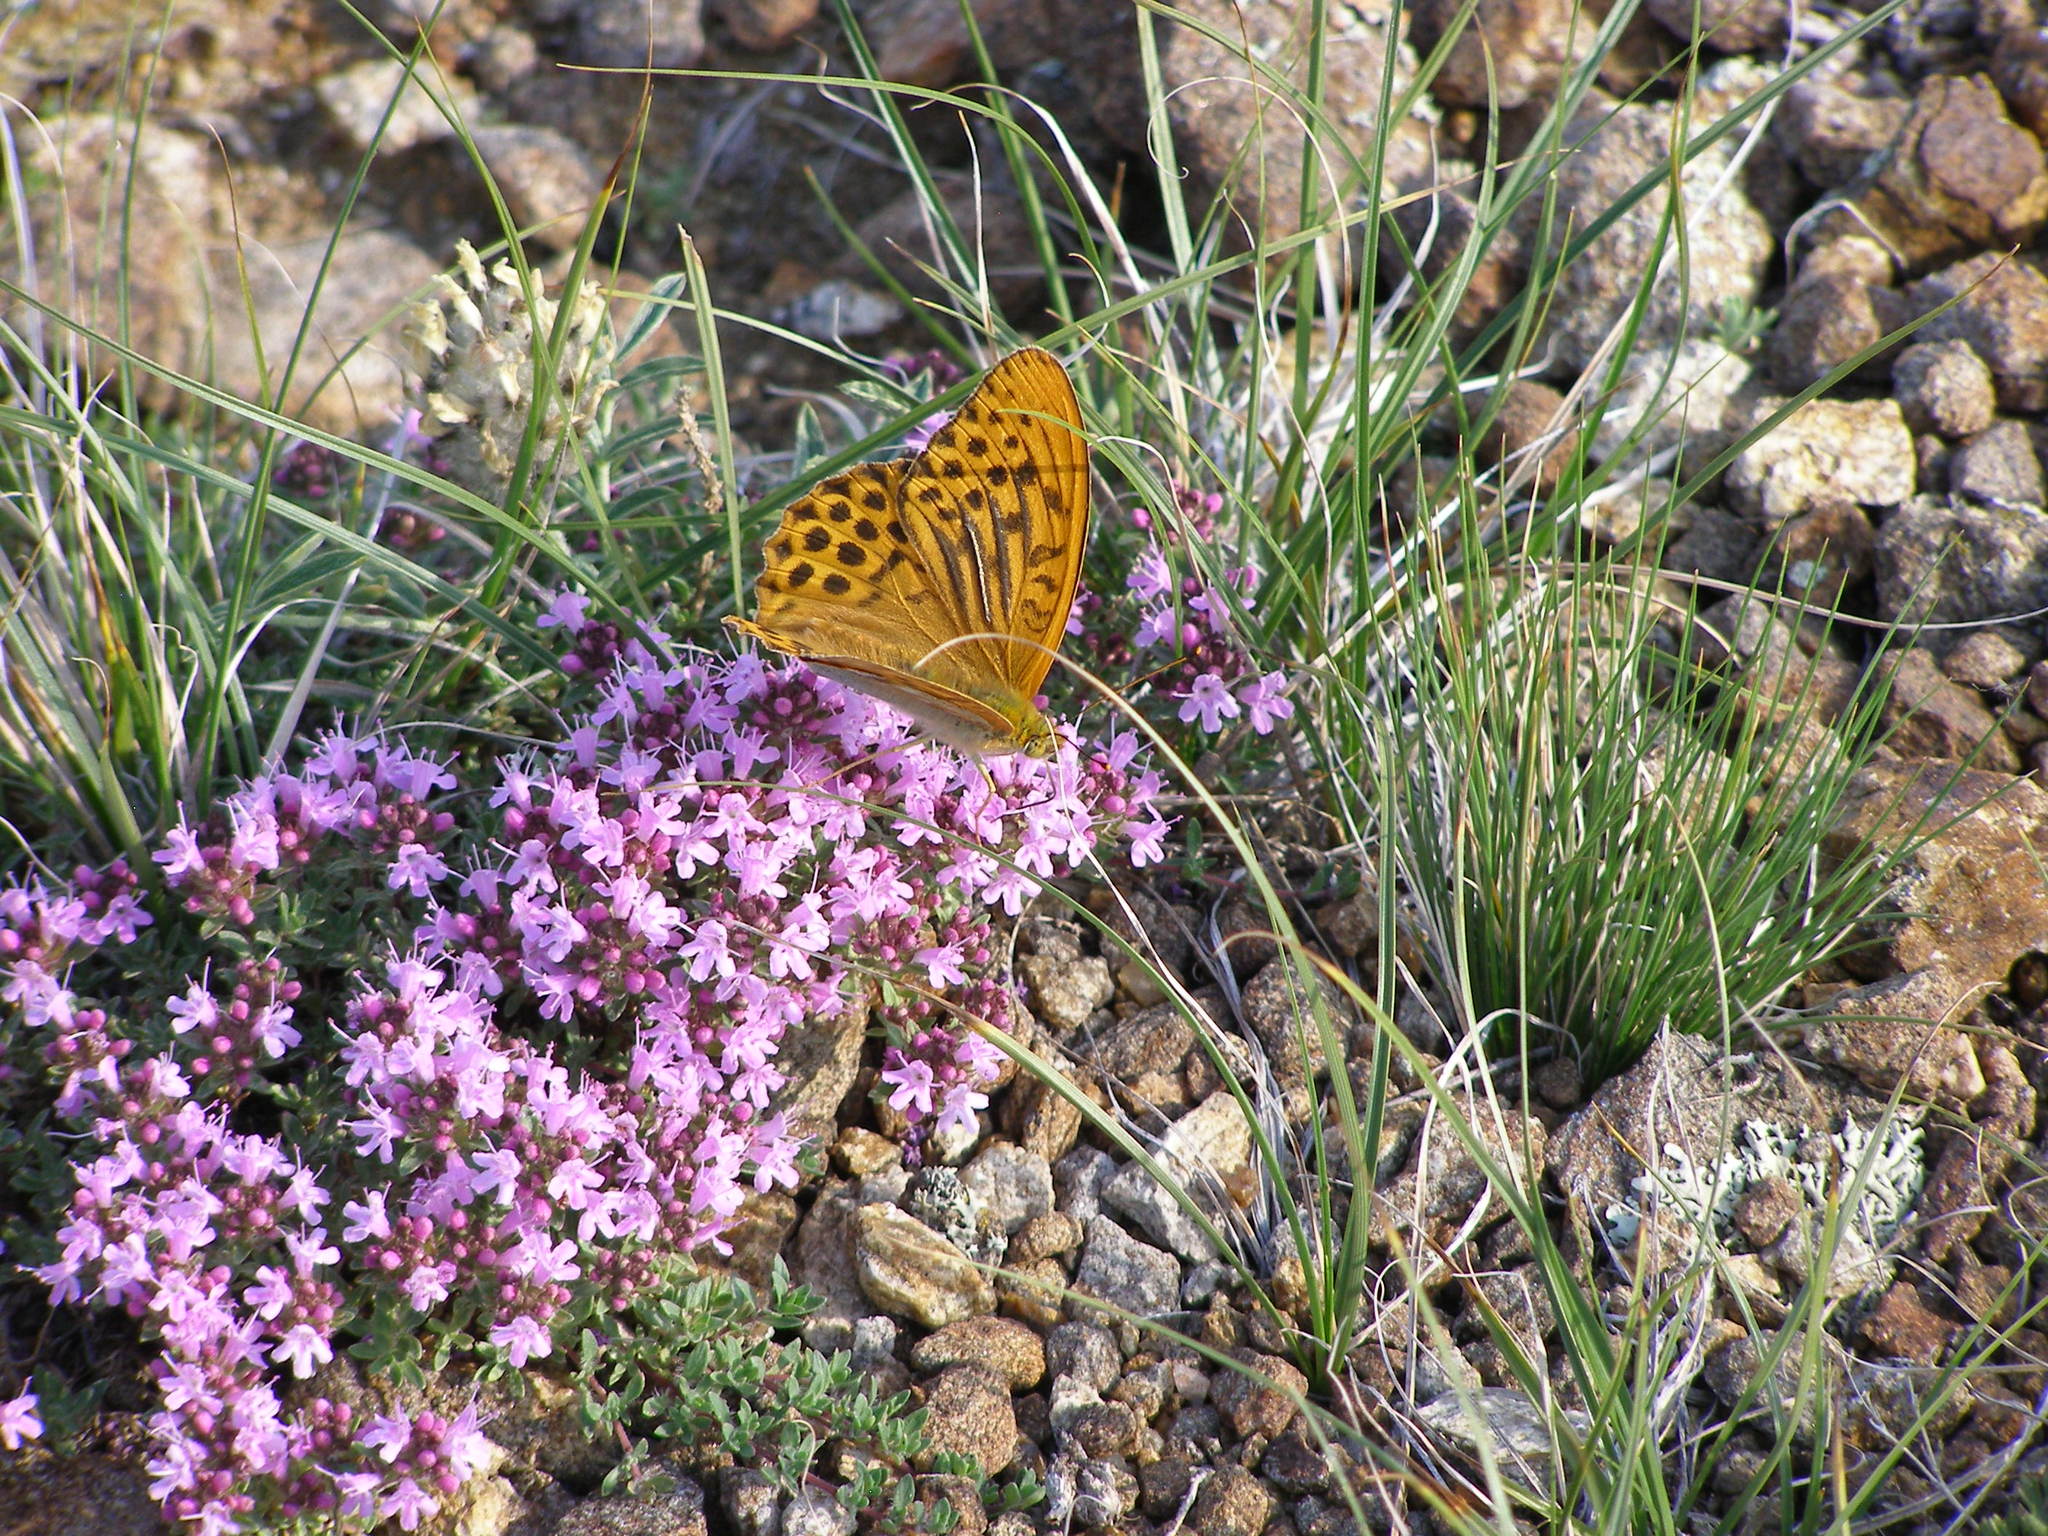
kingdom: Animalia
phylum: Arthropoda
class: Insecta
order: Lepidoptera
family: Nymphalidae
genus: Argynnis
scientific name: Argynnis paphia
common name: Silver-washed fritillary
